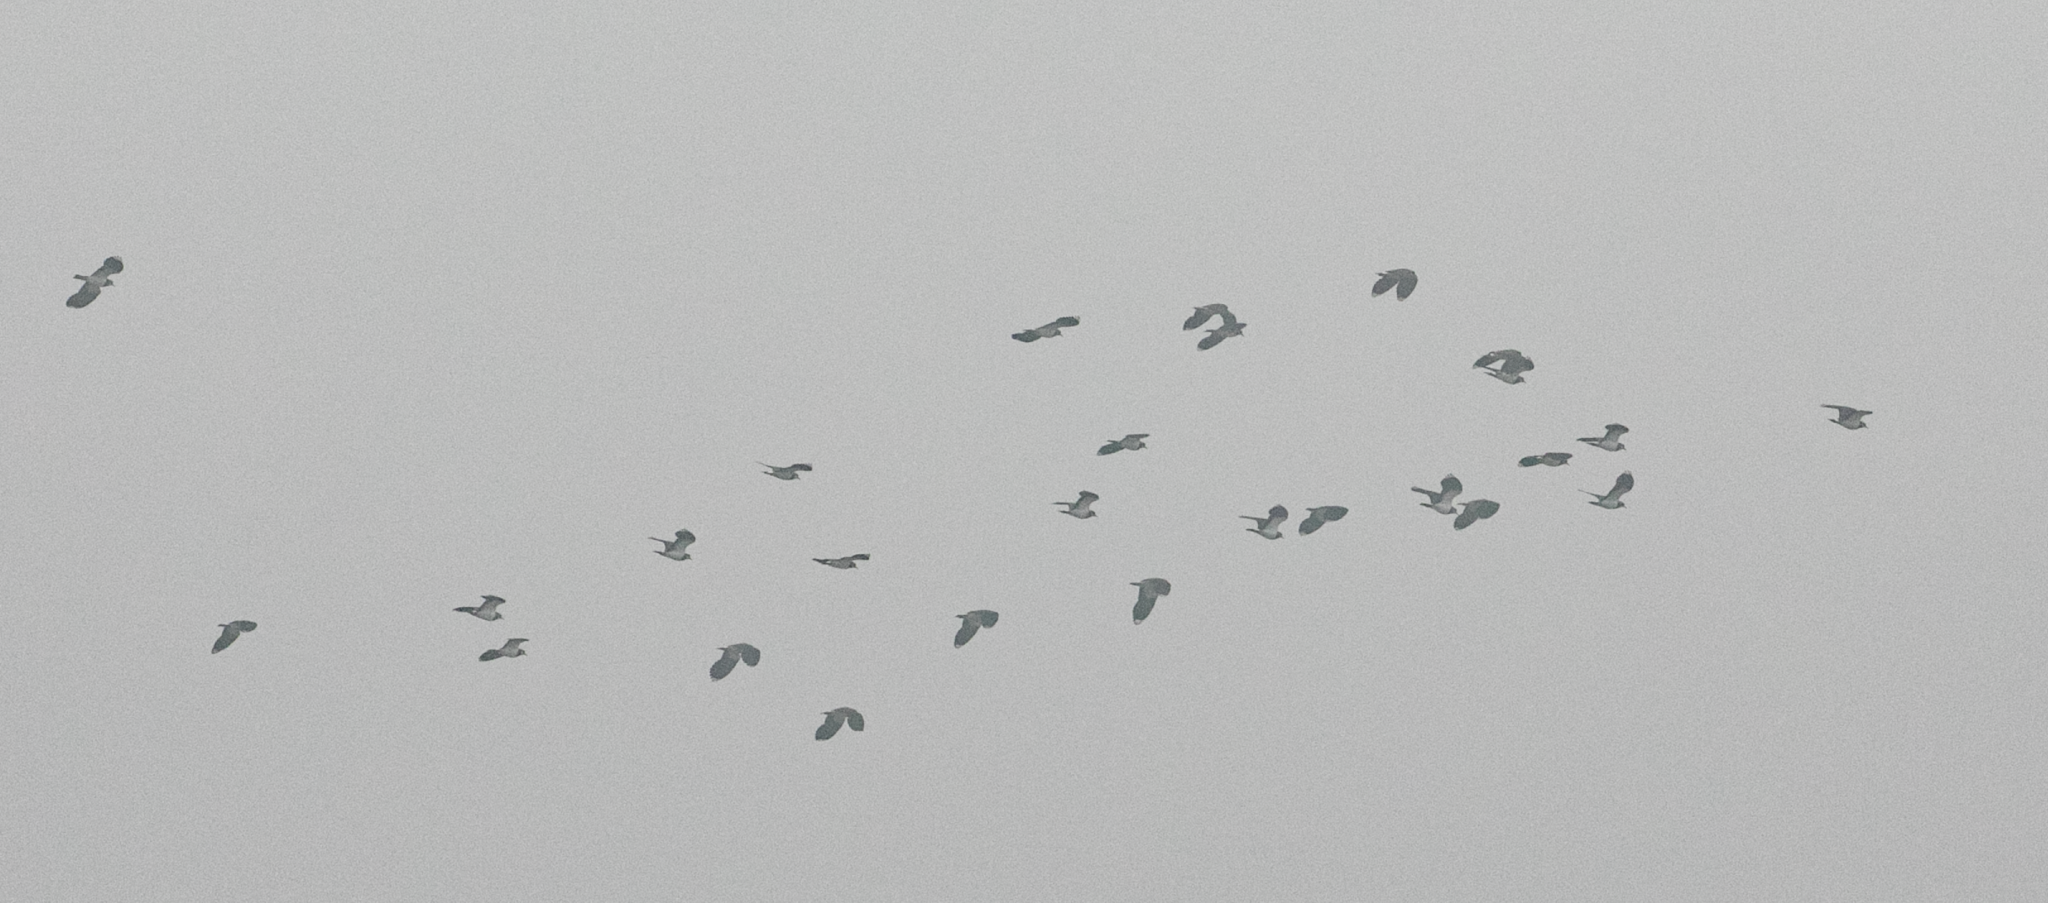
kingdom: Animalia
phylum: Chordata
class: Aves
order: Charadriiformes
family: Charadriidae
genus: Vanellus
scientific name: Vanellus vanellus
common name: Northern lapwing
